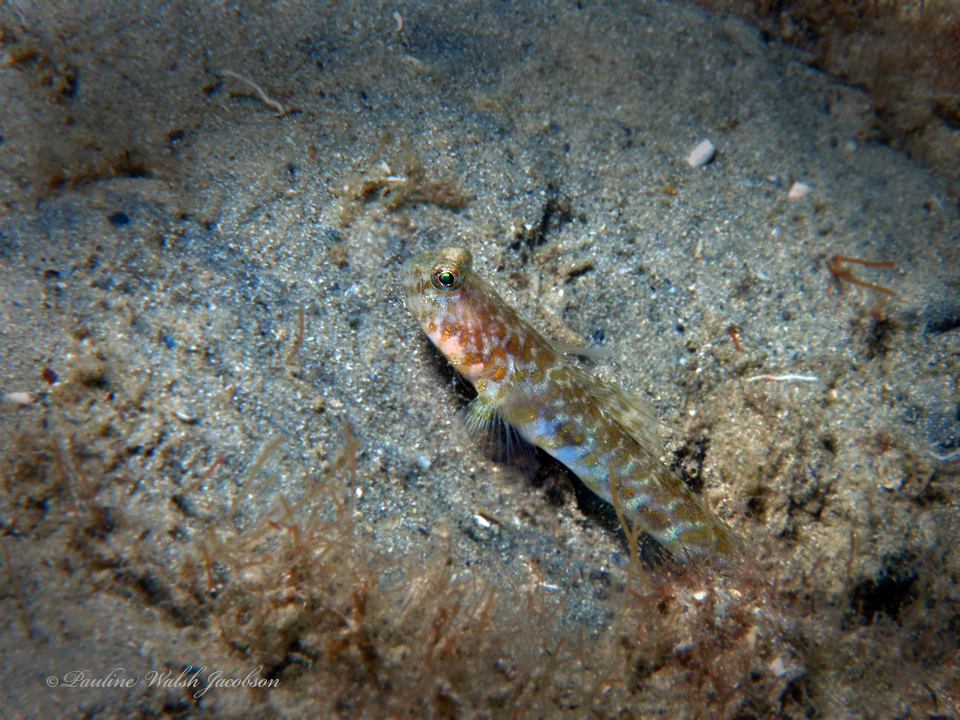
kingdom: Animalia
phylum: Chordata
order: Perciformes
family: Gobiidae
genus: Nes
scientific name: Nes longus
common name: Orangespotted goby
